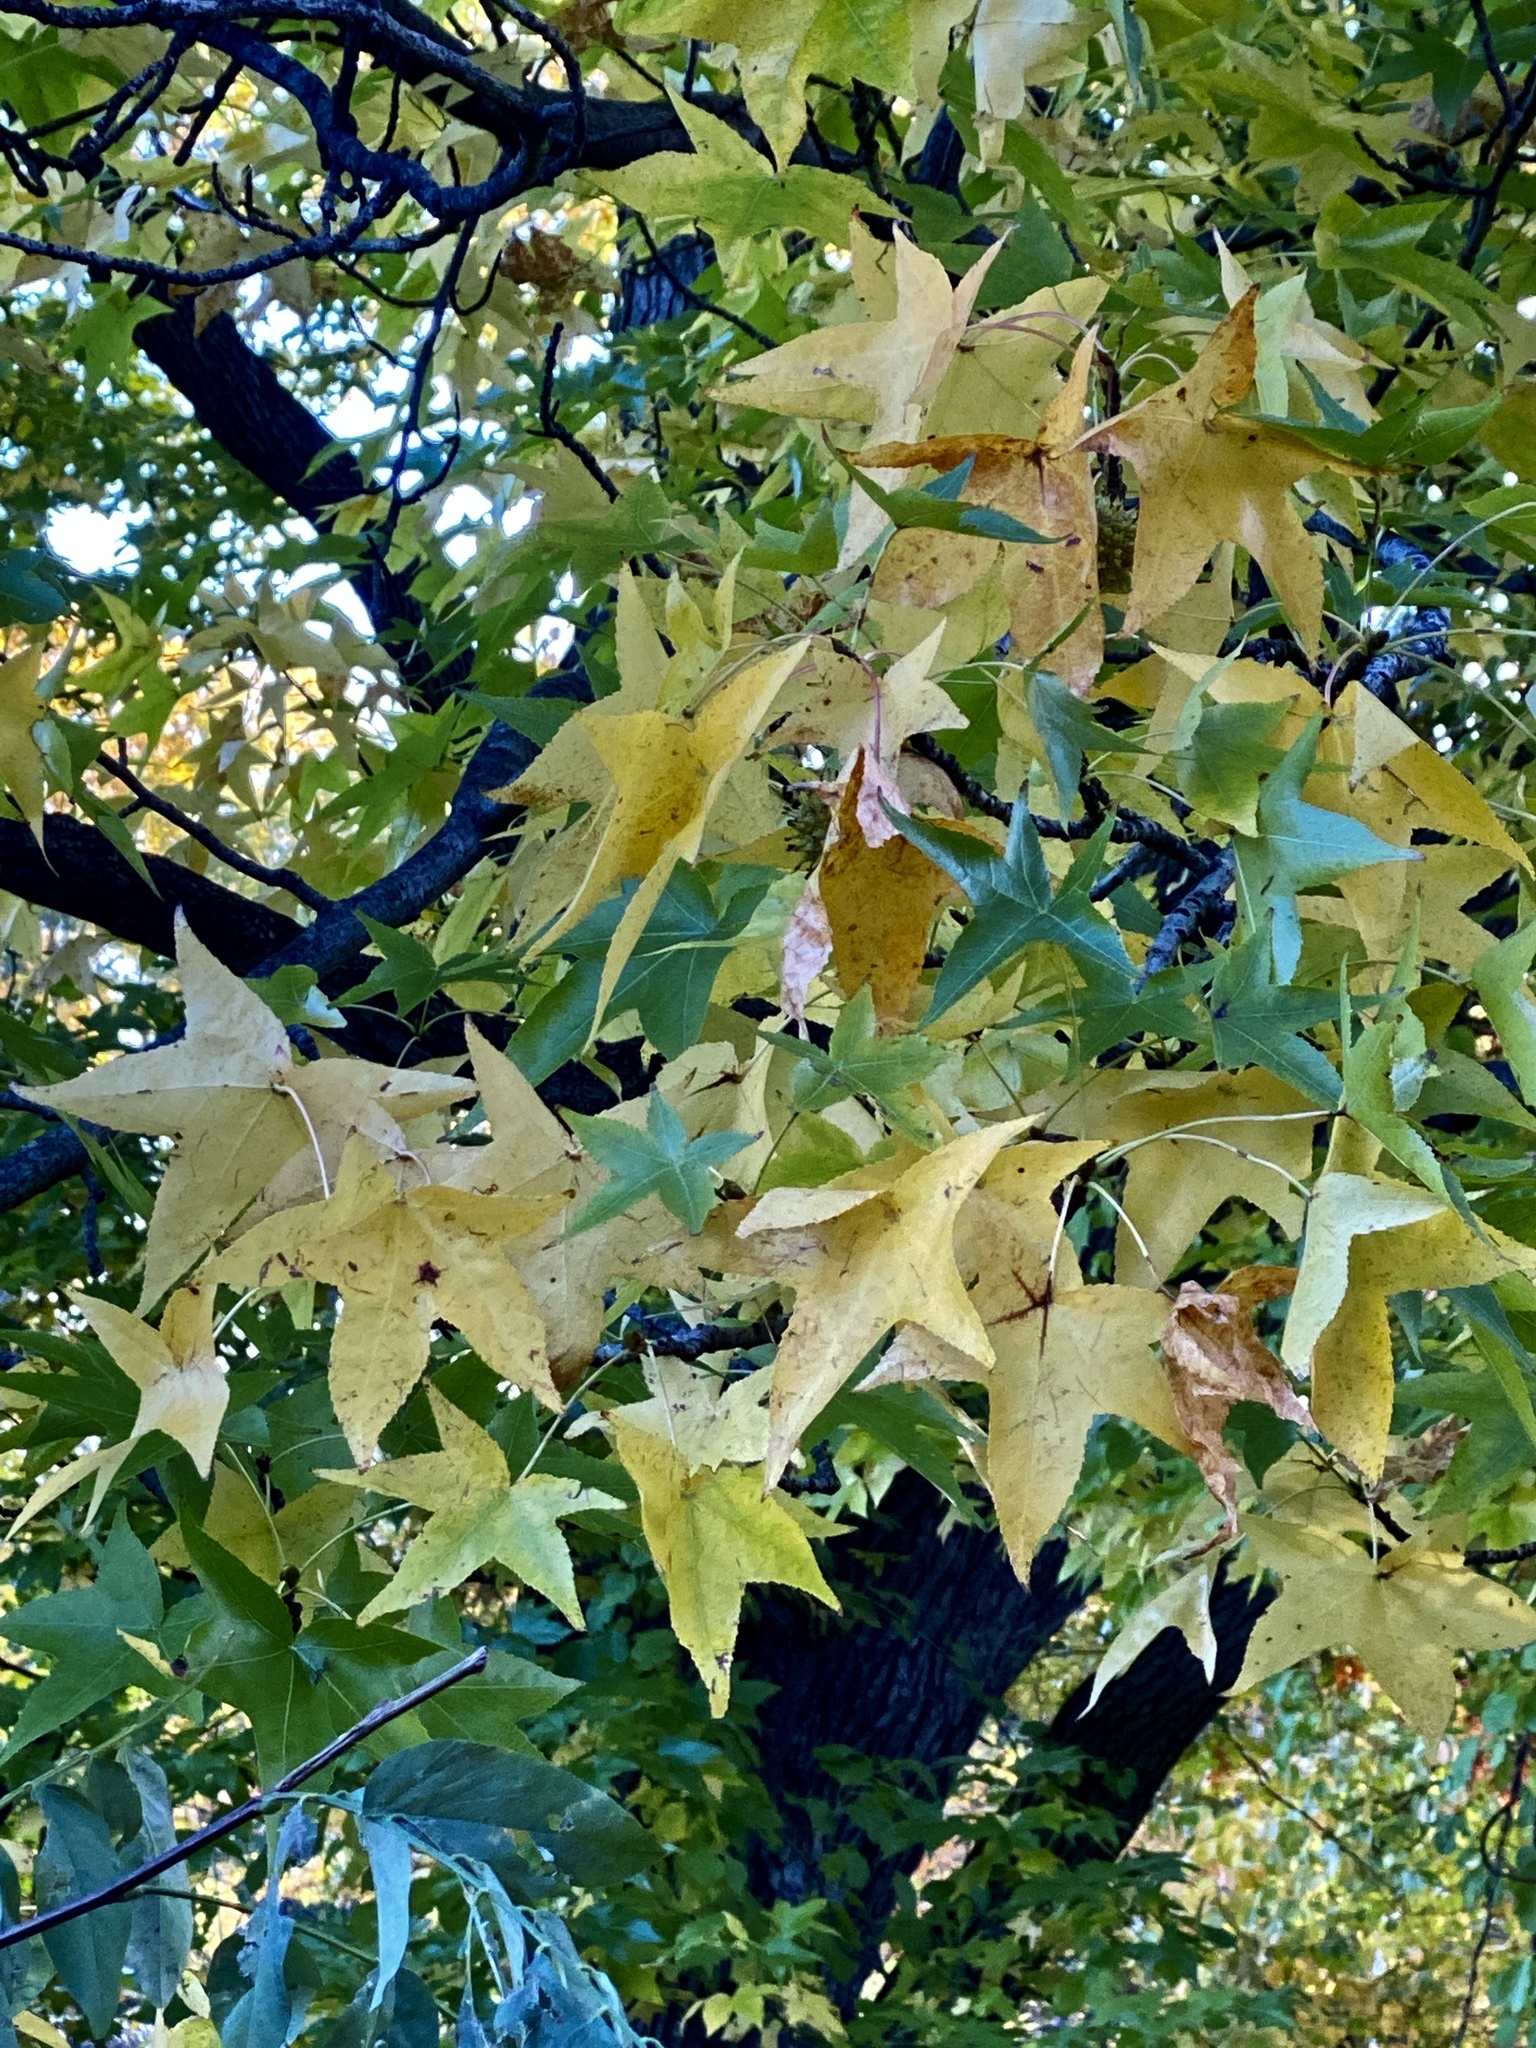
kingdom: Plantae
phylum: Tracheophyta
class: Magnoliopsida
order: Saxifragales
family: Altingiaceae
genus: Liquidambar
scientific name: Liquidambar styraciflua
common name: Sweet gum
